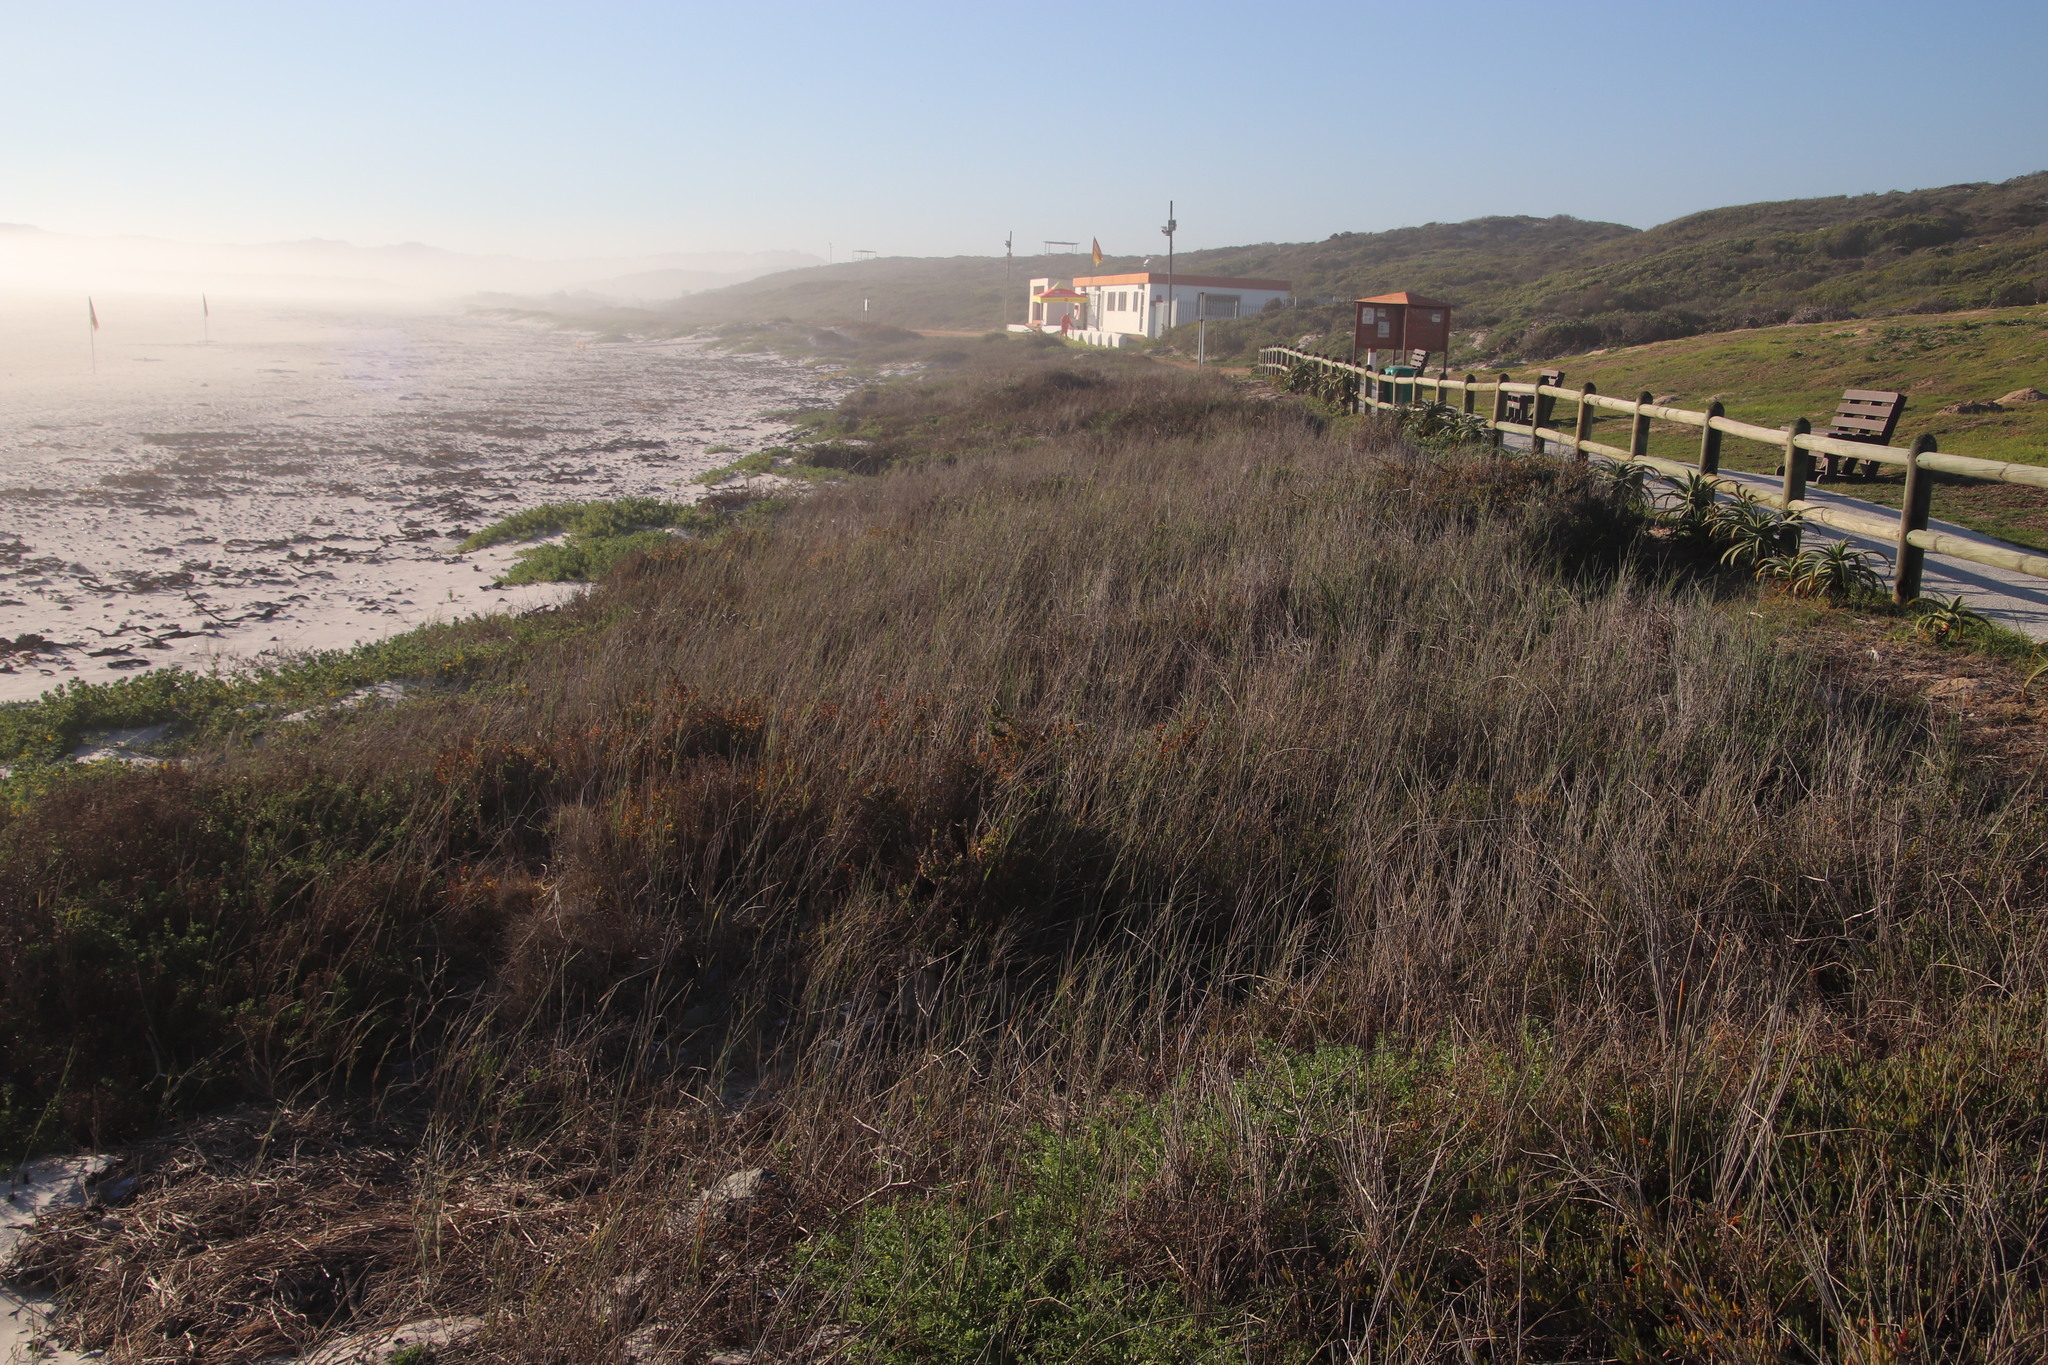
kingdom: Plantae
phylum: Tracheophyta
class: Liliopsida
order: Poales
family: Poaceae
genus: Ehrharta
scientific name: Ehrharta villosa
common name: Pyp grass
